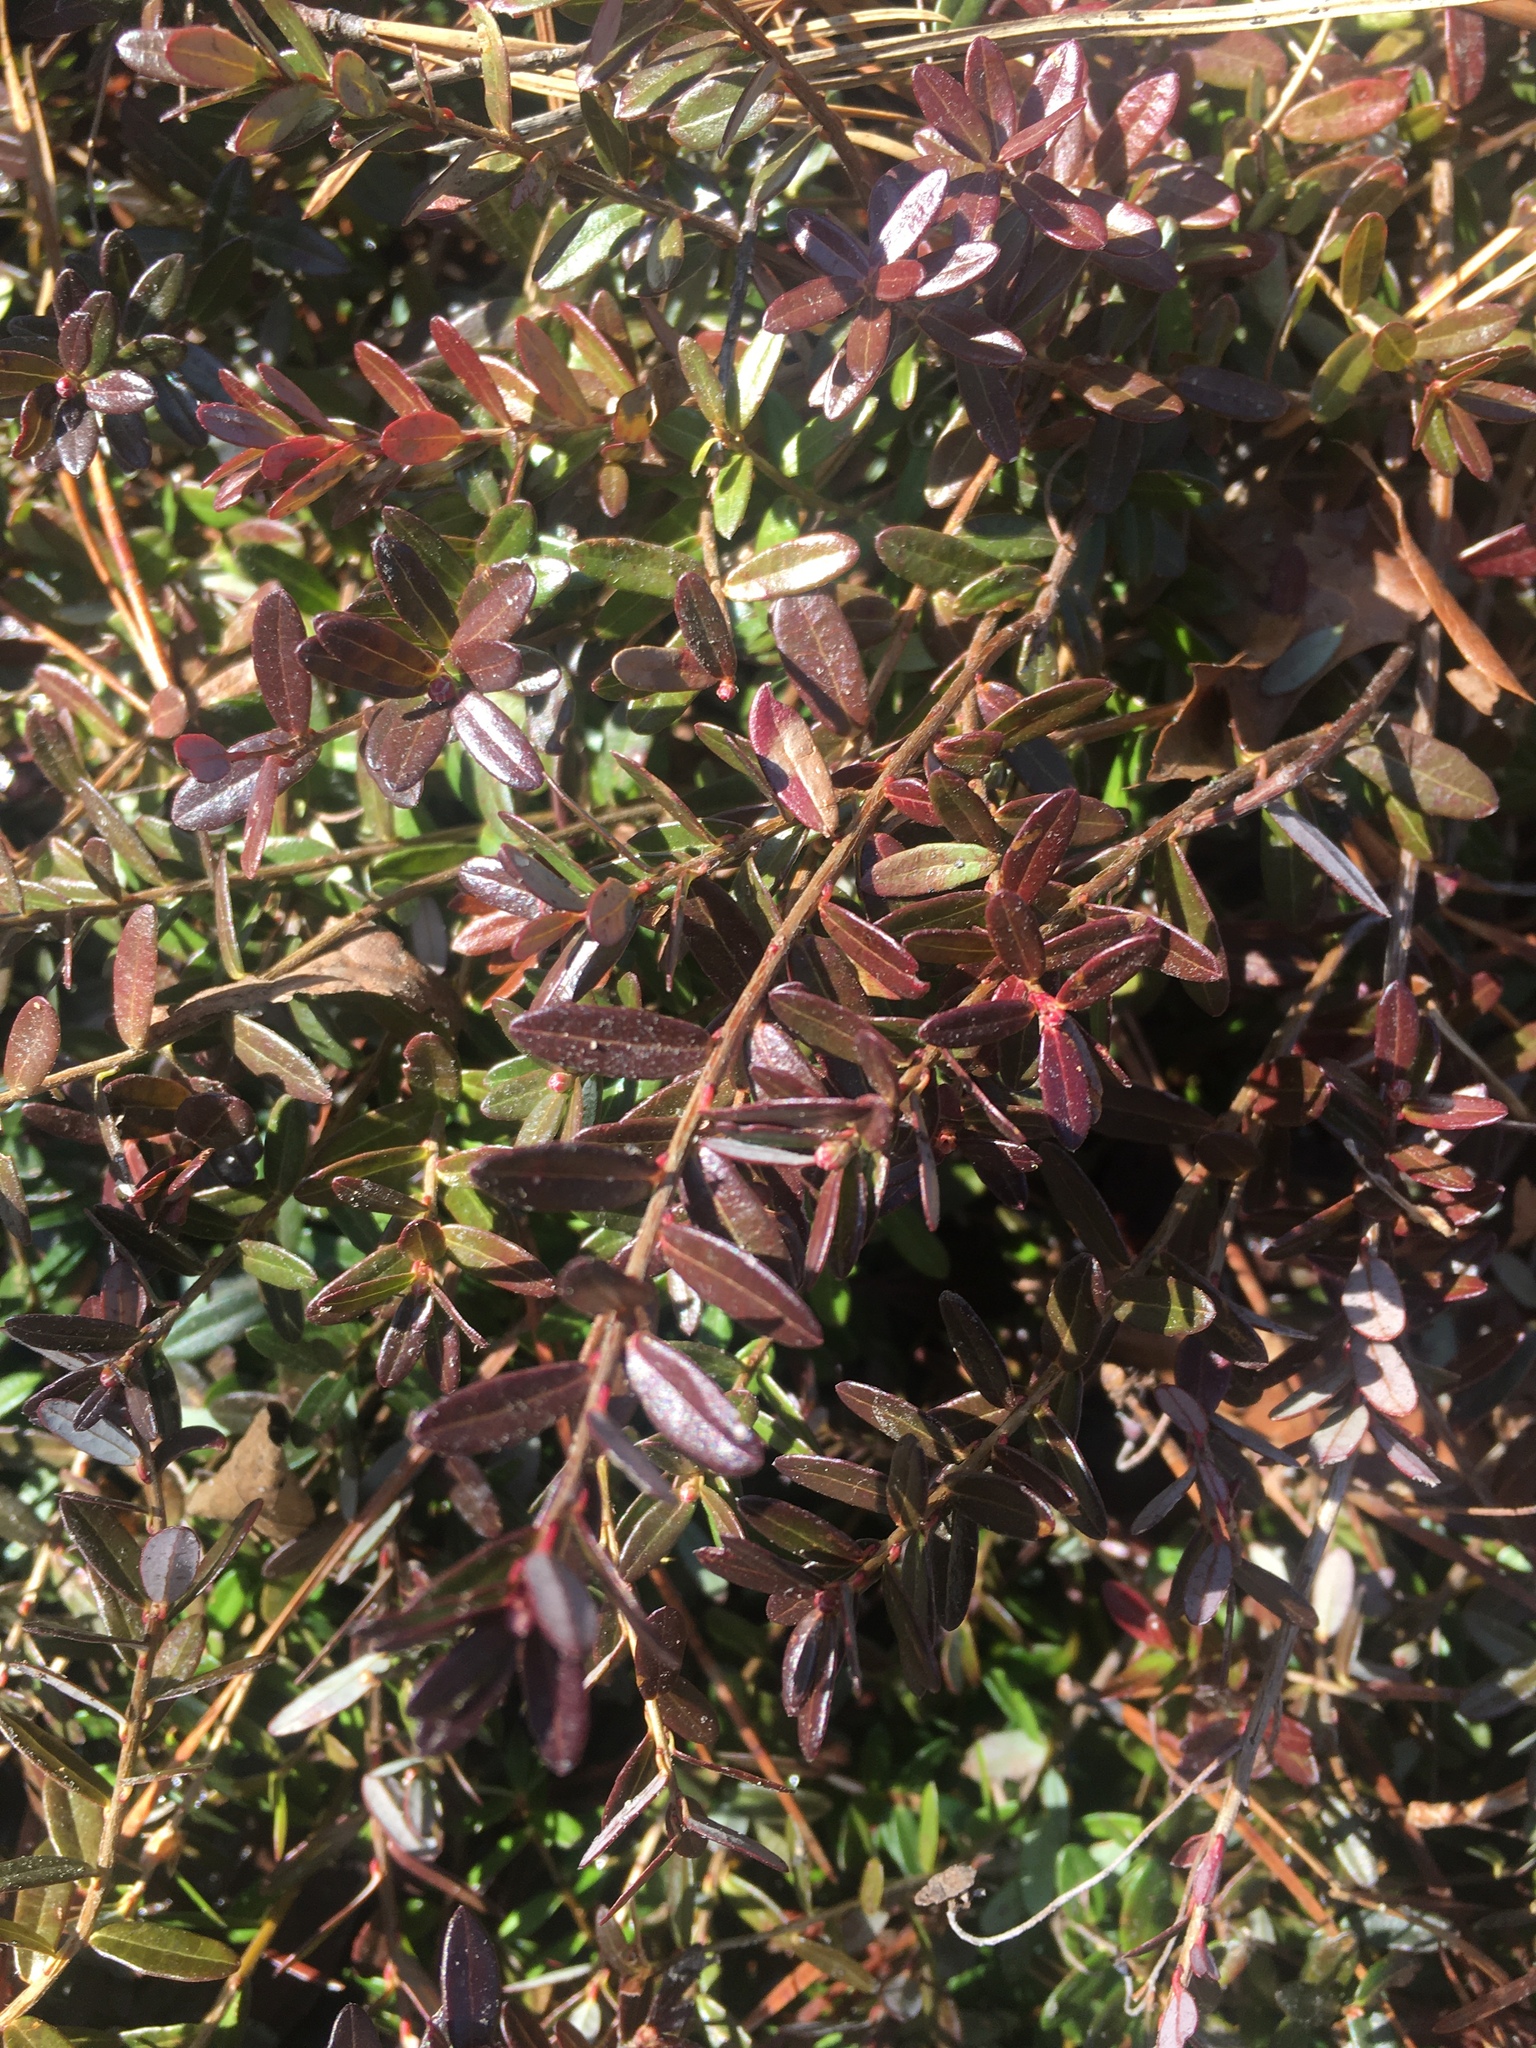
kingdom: Plantae
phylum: Tracheophyta
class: Magnoliopsida
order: Ericales
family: Ericaceae
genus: Vaccinium
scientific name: Vaccinium macrocarpon
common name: American cranberry
